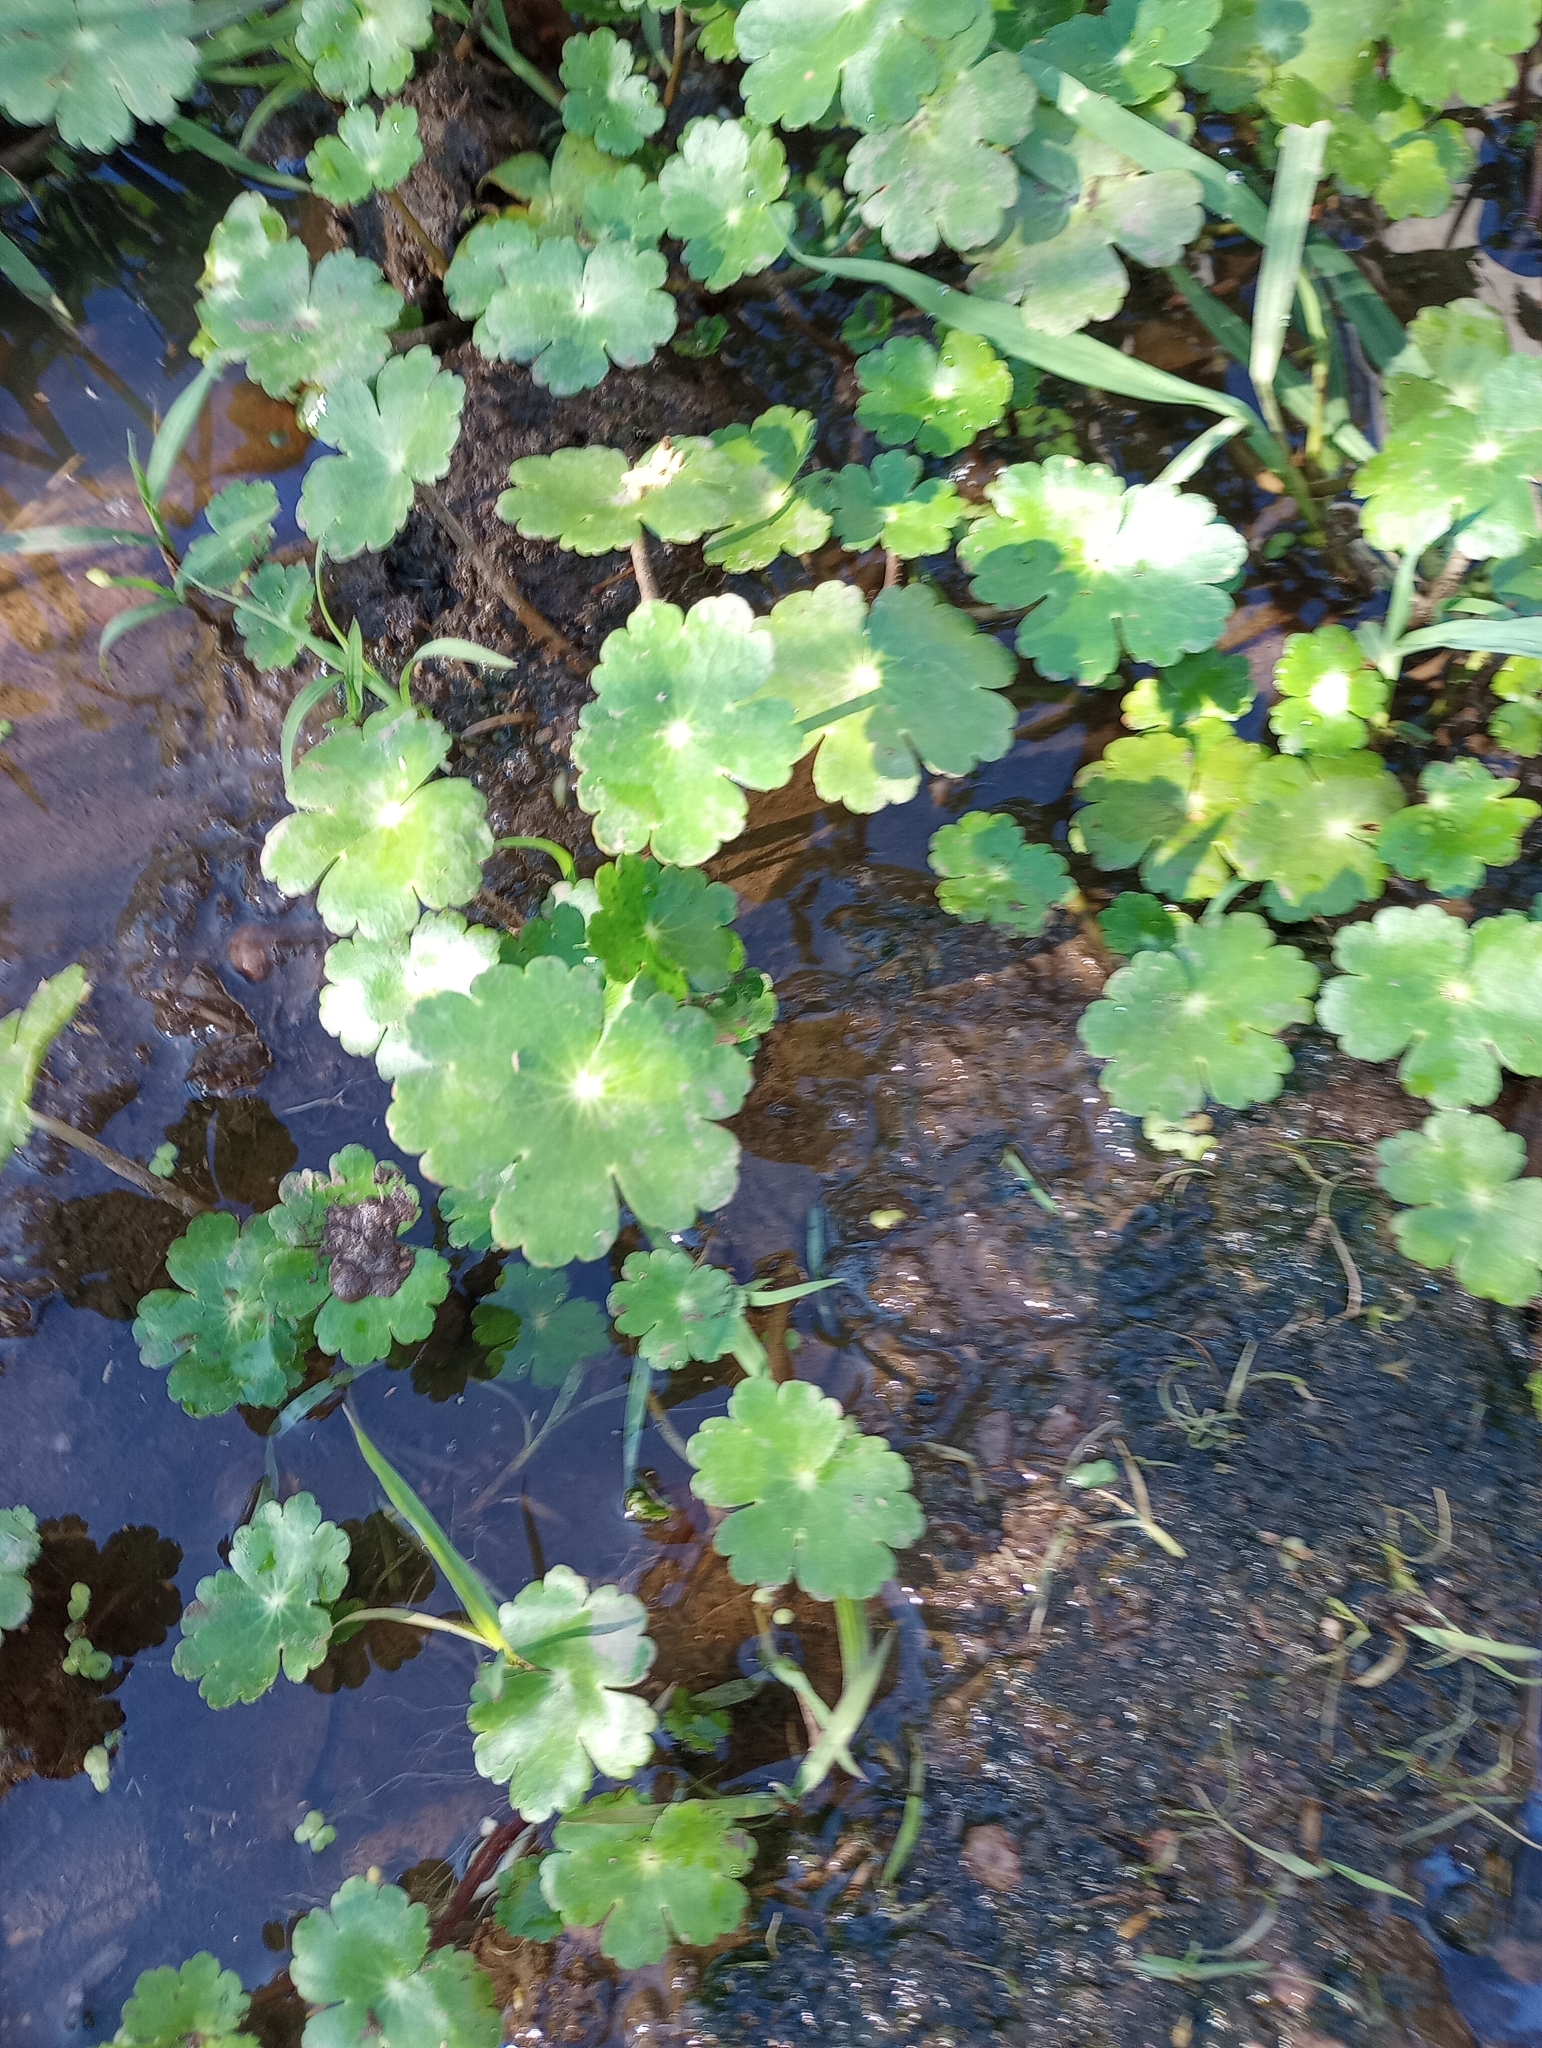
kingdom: Plantae
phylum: Tracheophyta
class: Magnoliopsida
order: Apiales
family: Araliaceae
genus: Hydrocotyle
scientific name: Hydrocotyle ranunculoides
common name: Floating pennywort
